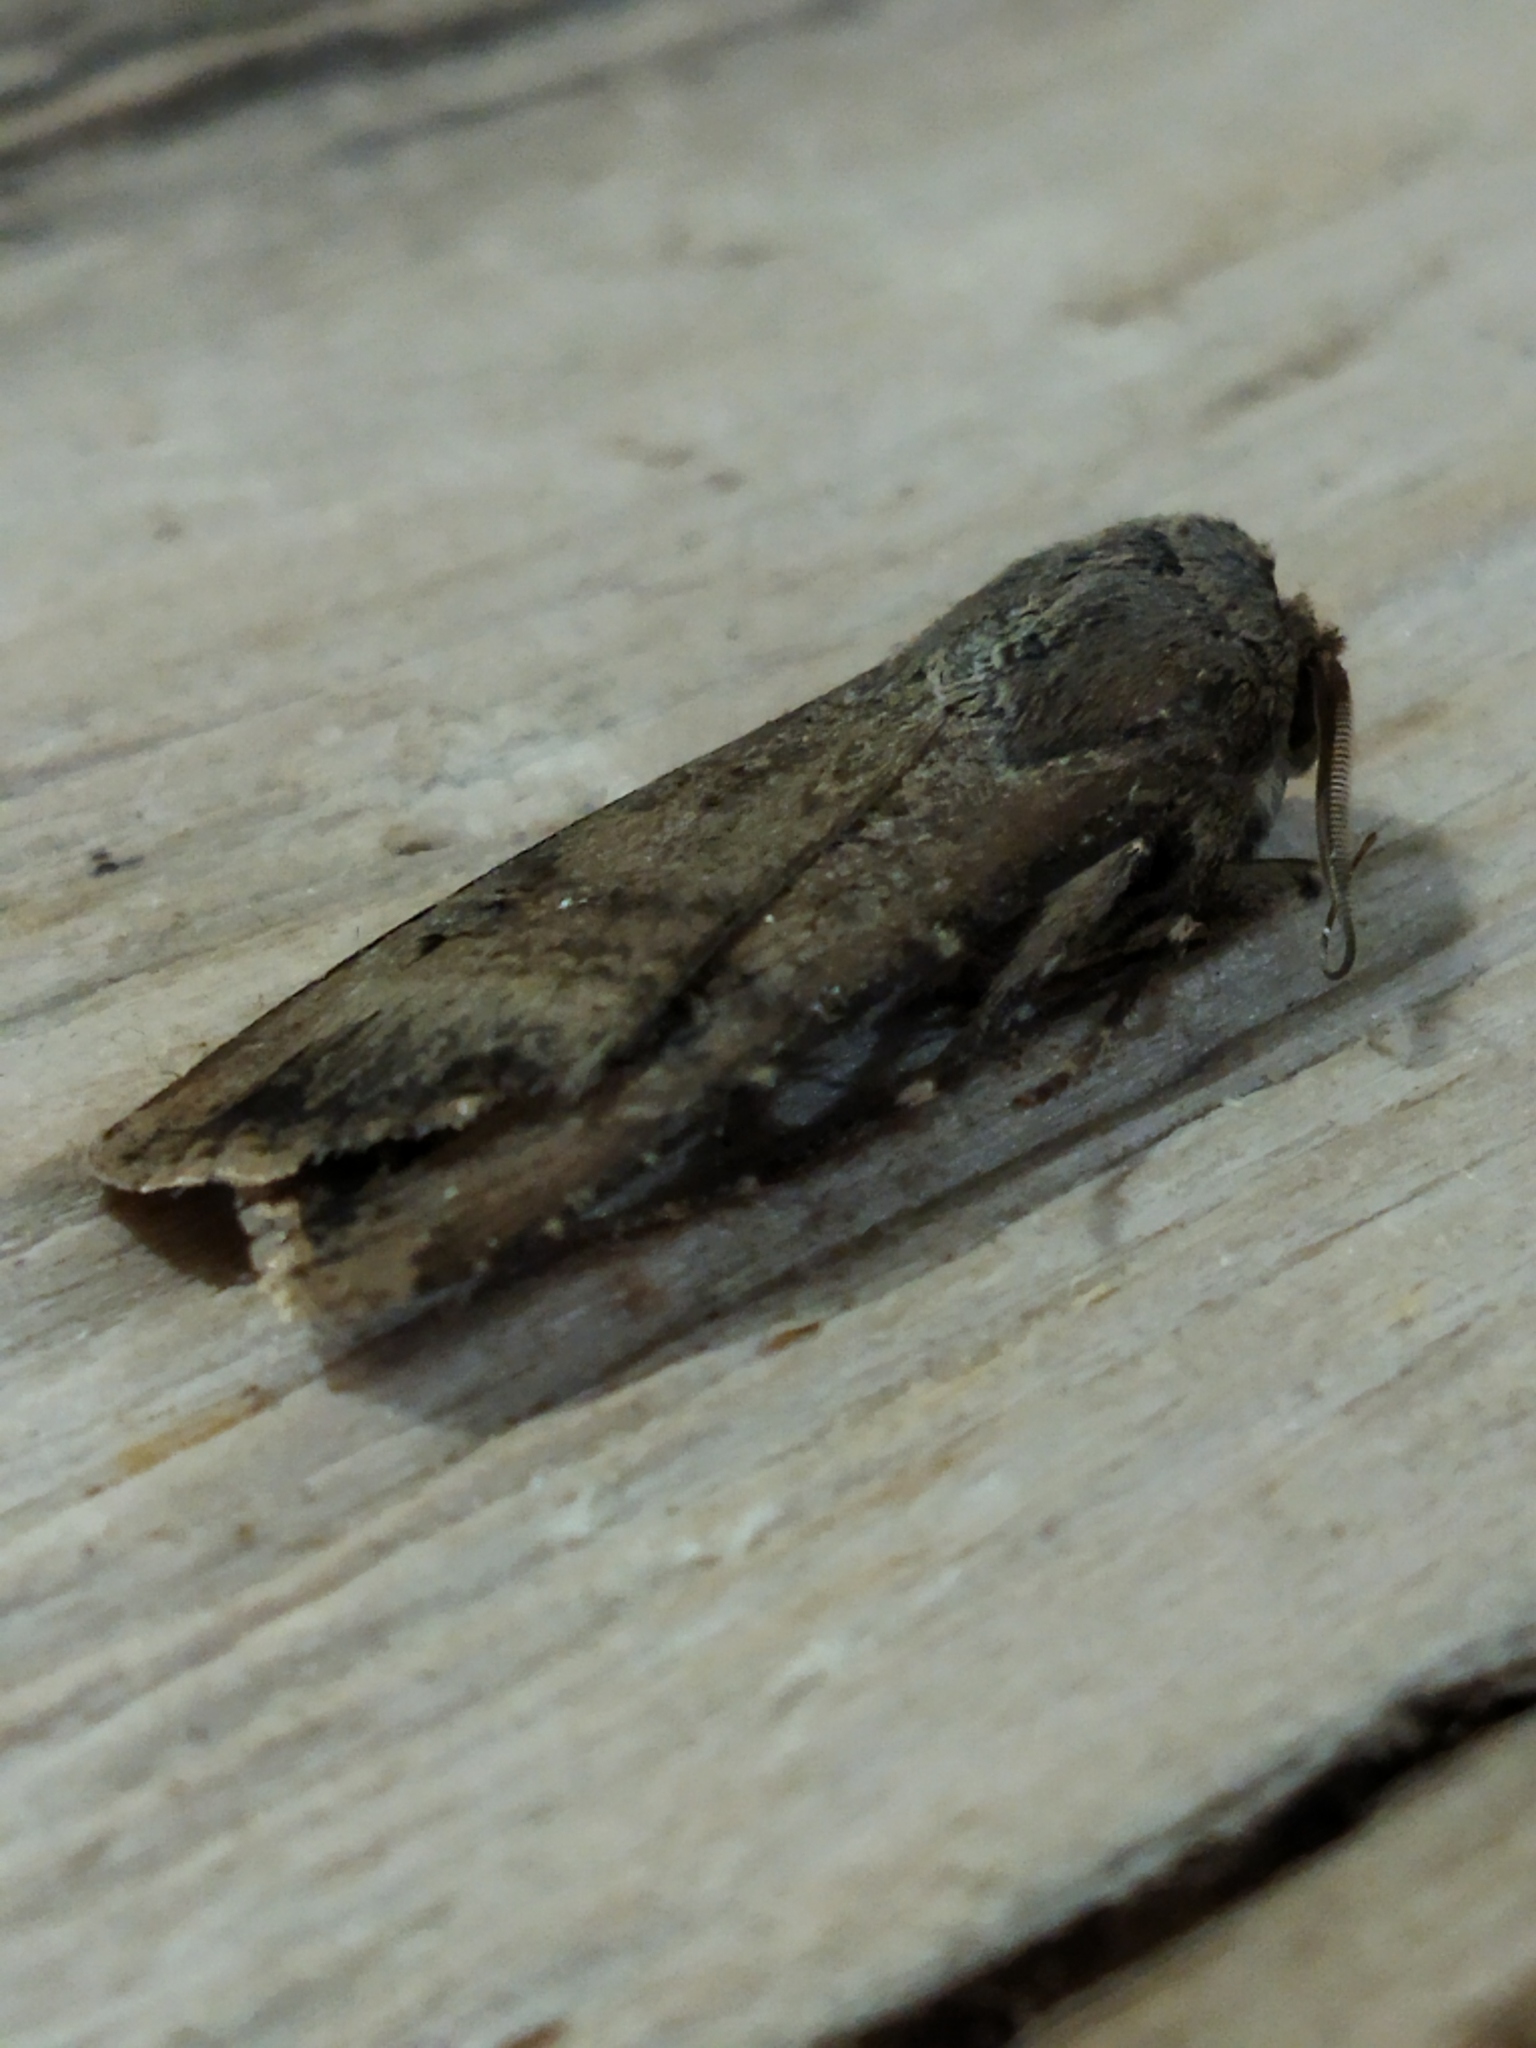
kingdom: Animalia
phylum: Arthropoda
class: Insecta
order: Lepidoptera
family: Noctuidae
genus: Agrotis
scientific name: Agrotis ipsilon
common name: Dark sword-grass
